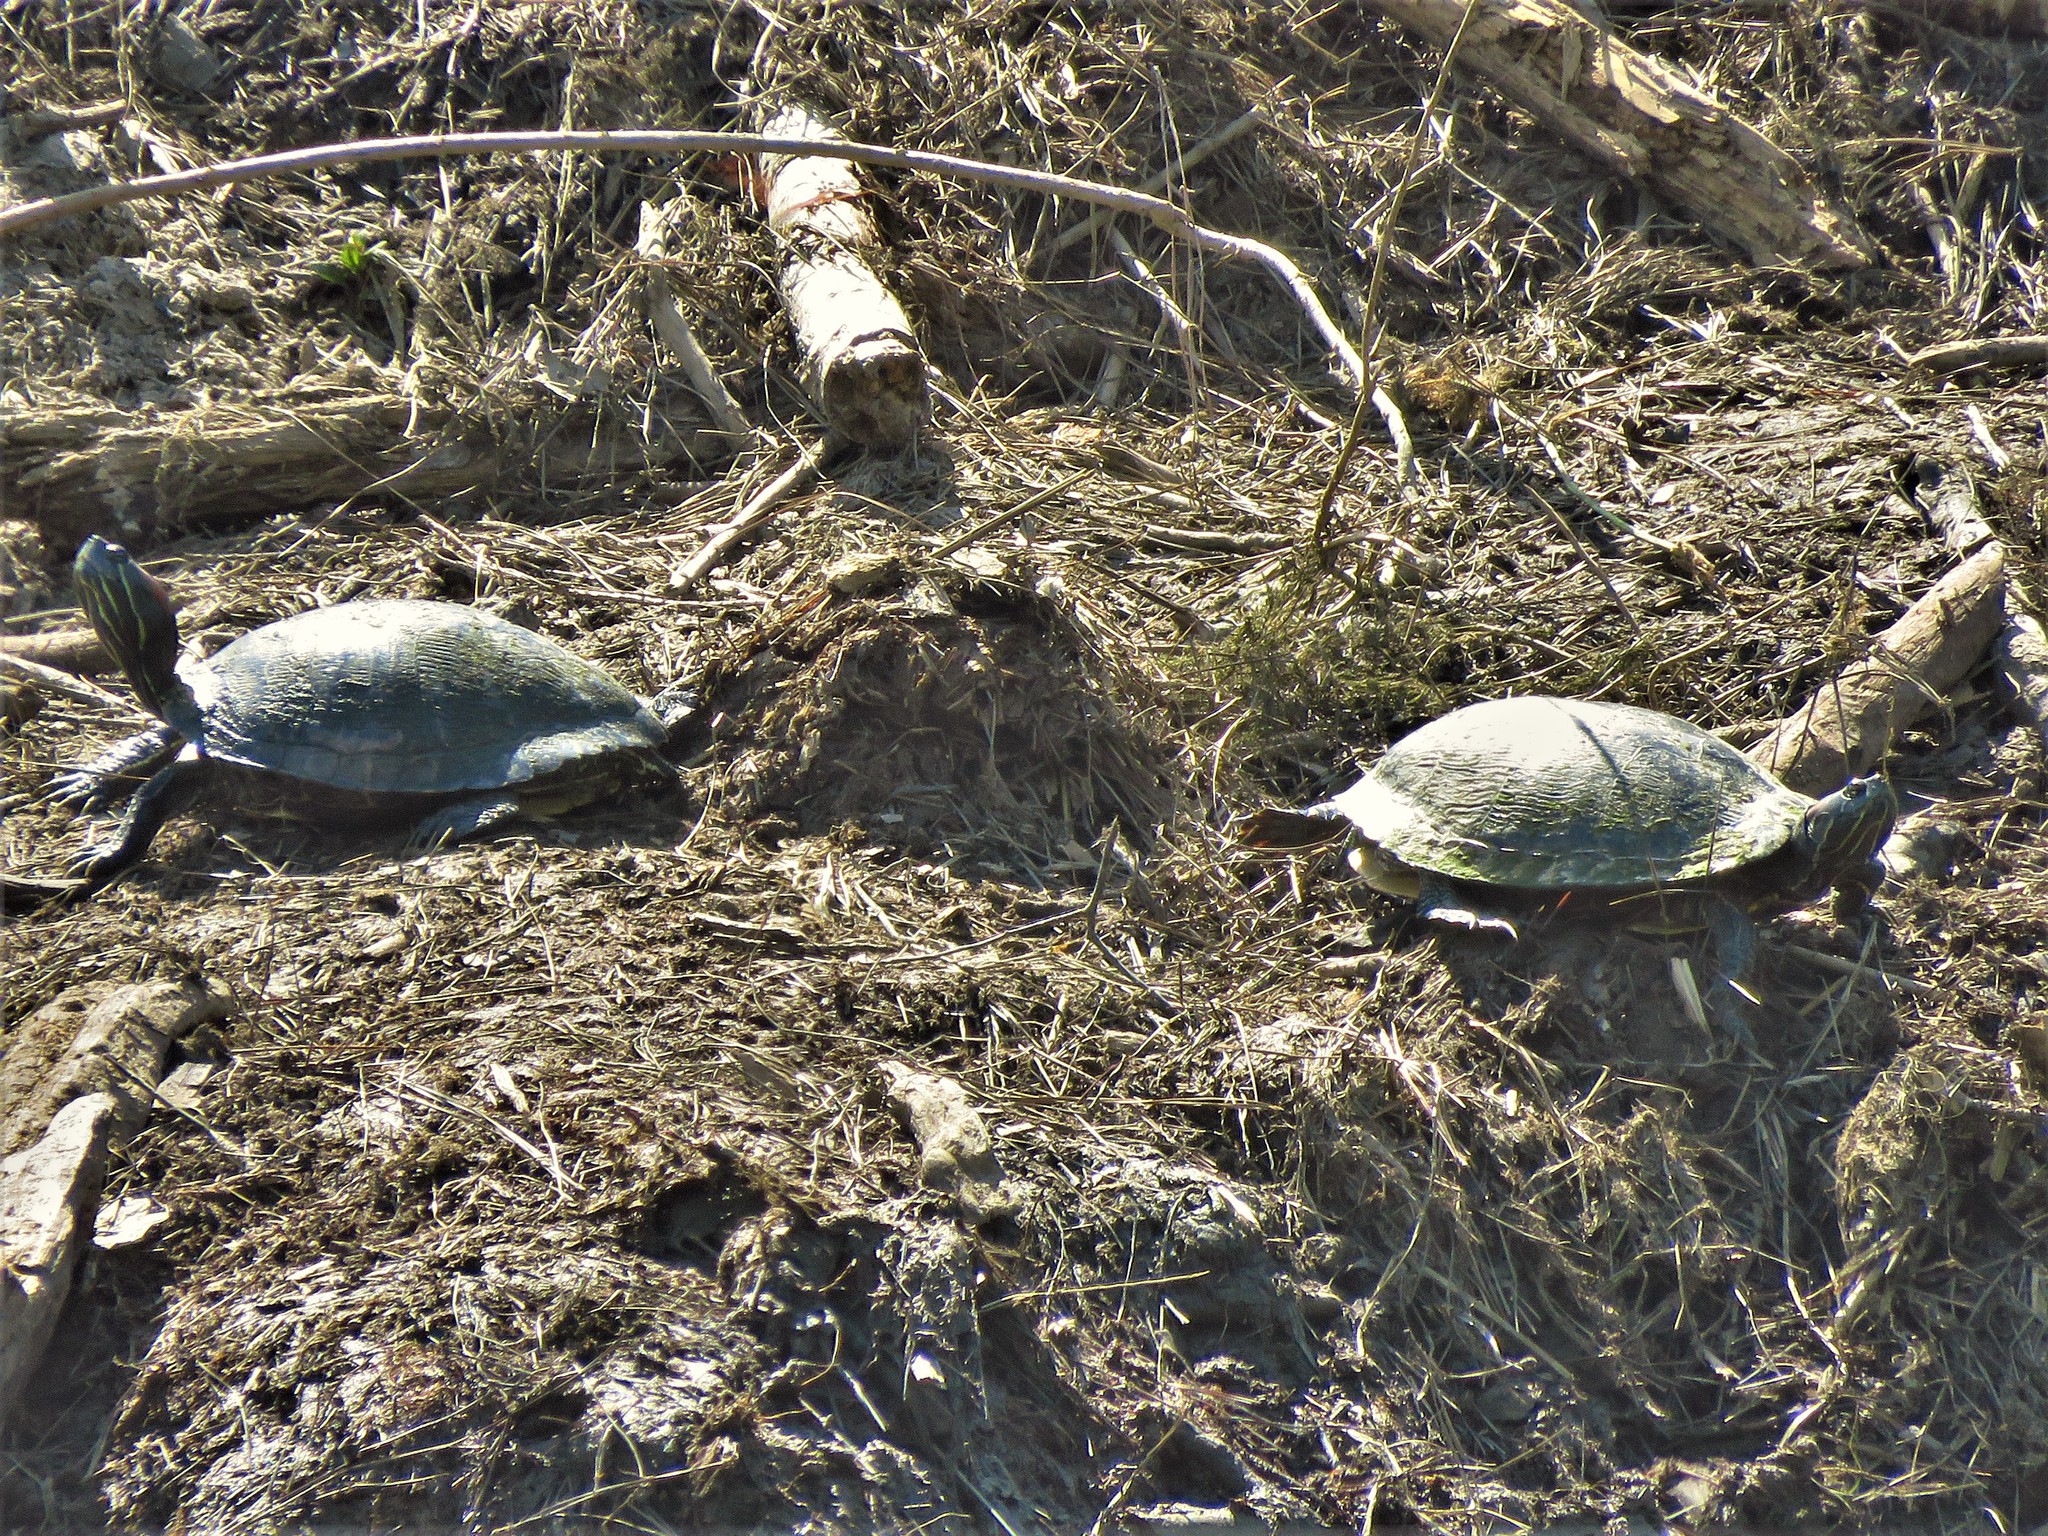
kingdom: Animalia
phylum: Chordata
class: Testudines
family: Emydidae
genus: Trachemys
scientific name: Trachemys scripta
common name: Slider
